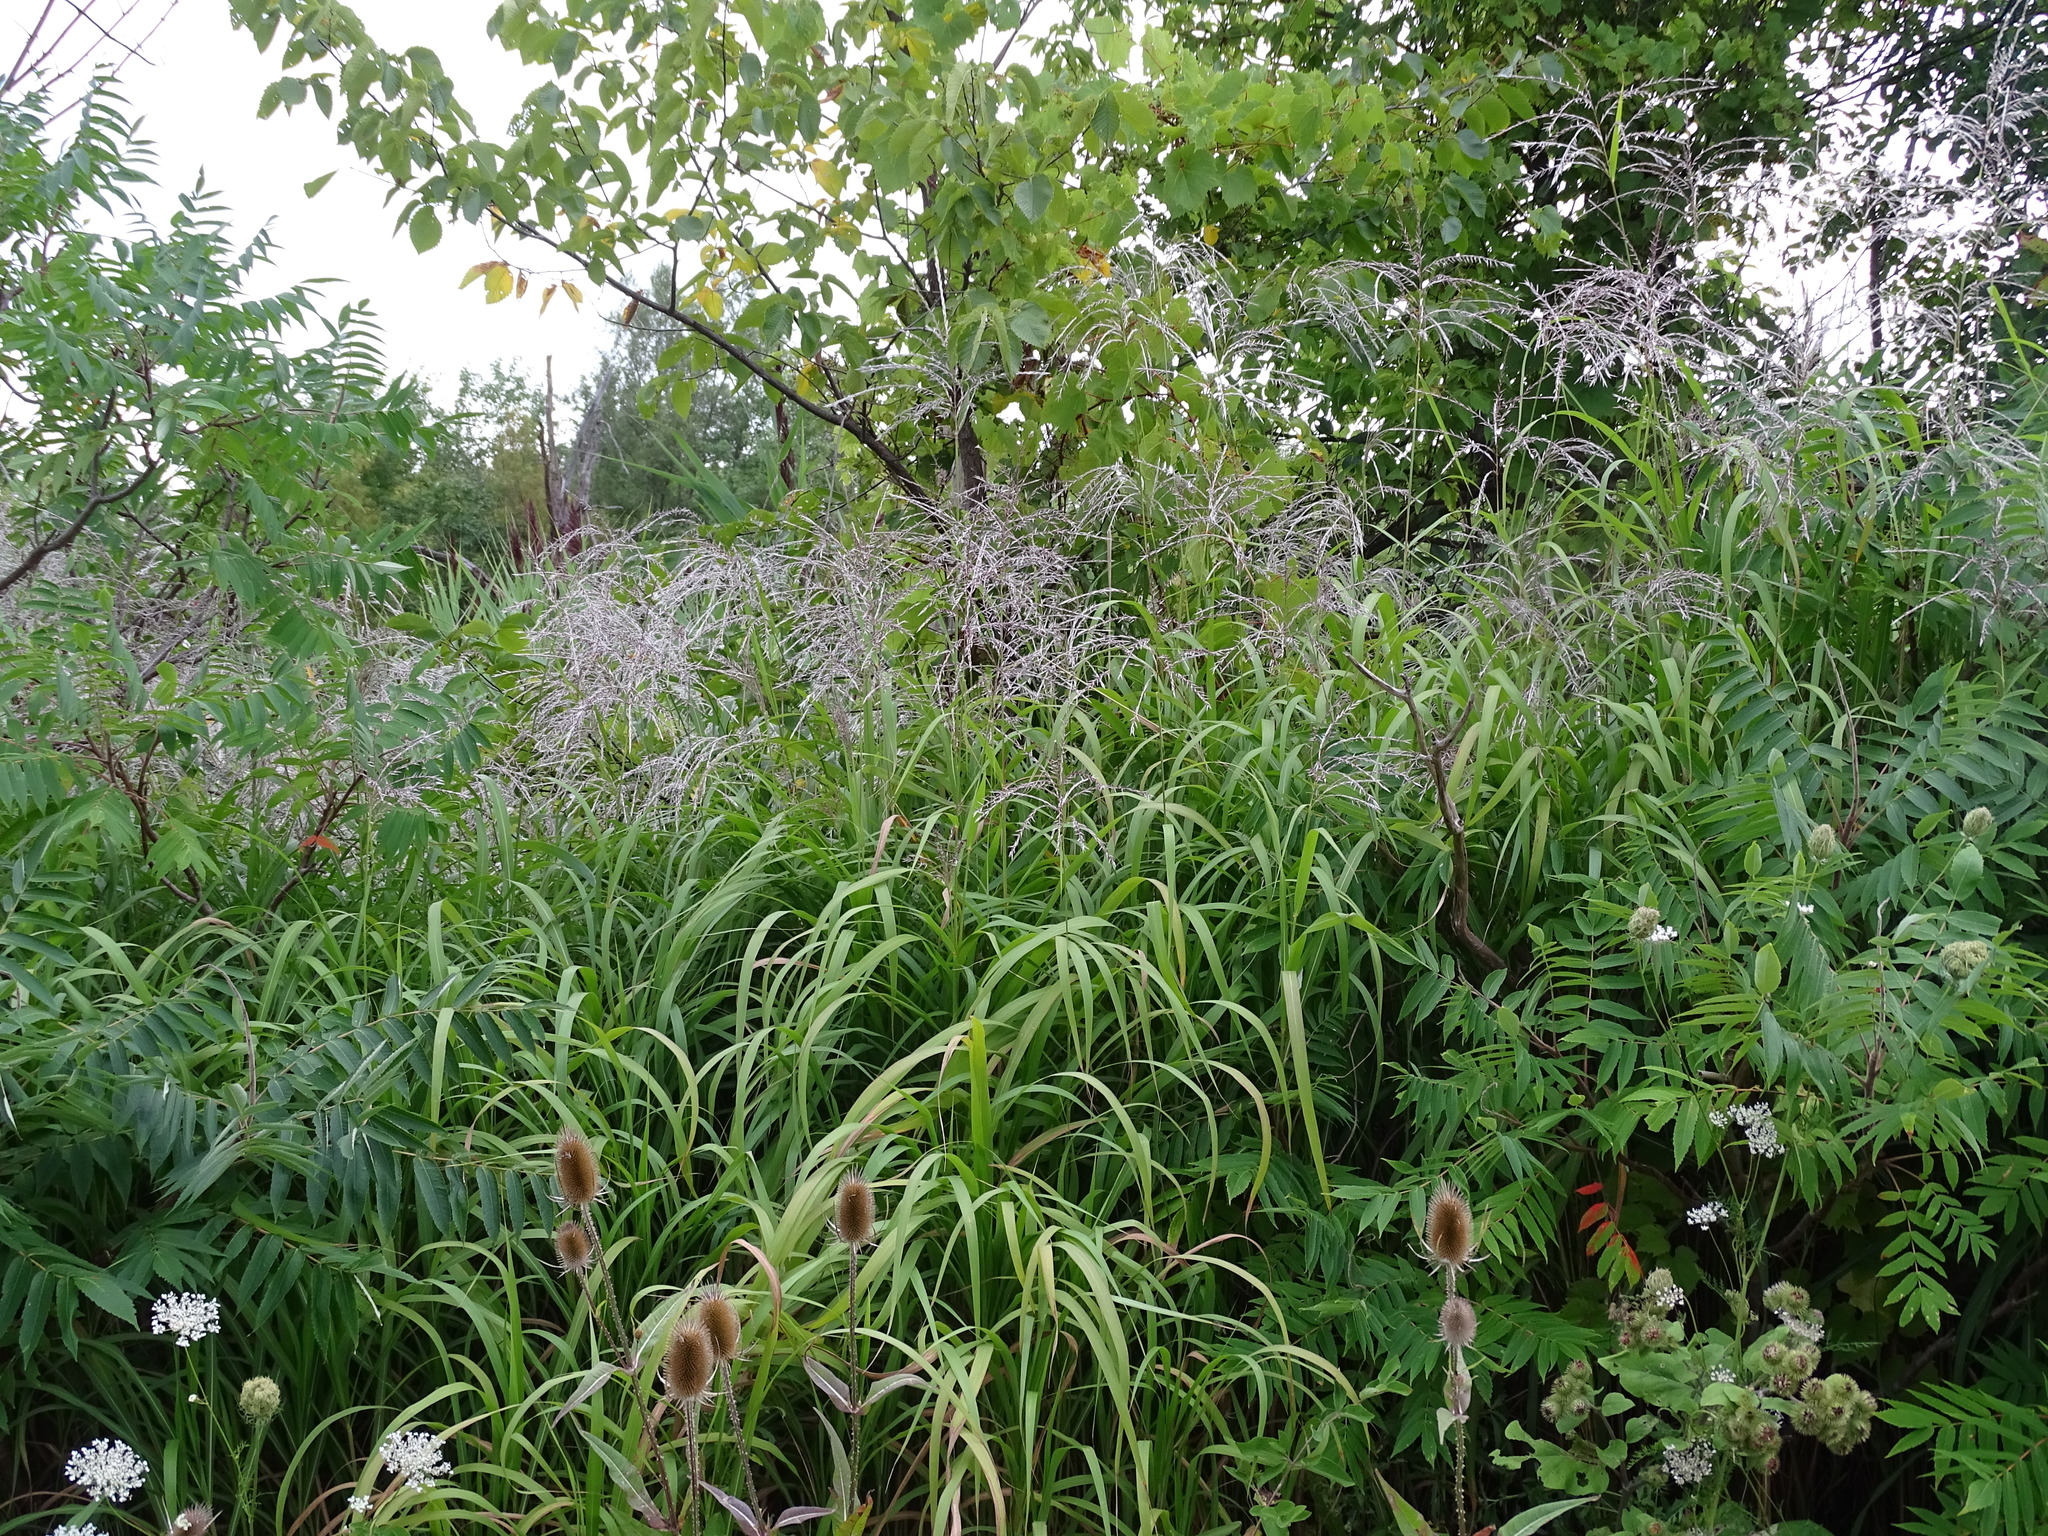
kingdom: Plantae
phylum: Tracheophyta
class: Liliopsida
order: Poales
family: Poaceae
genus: Miscanthus
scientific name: Miscanthus sacchariflorus
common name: Amur silver grass
